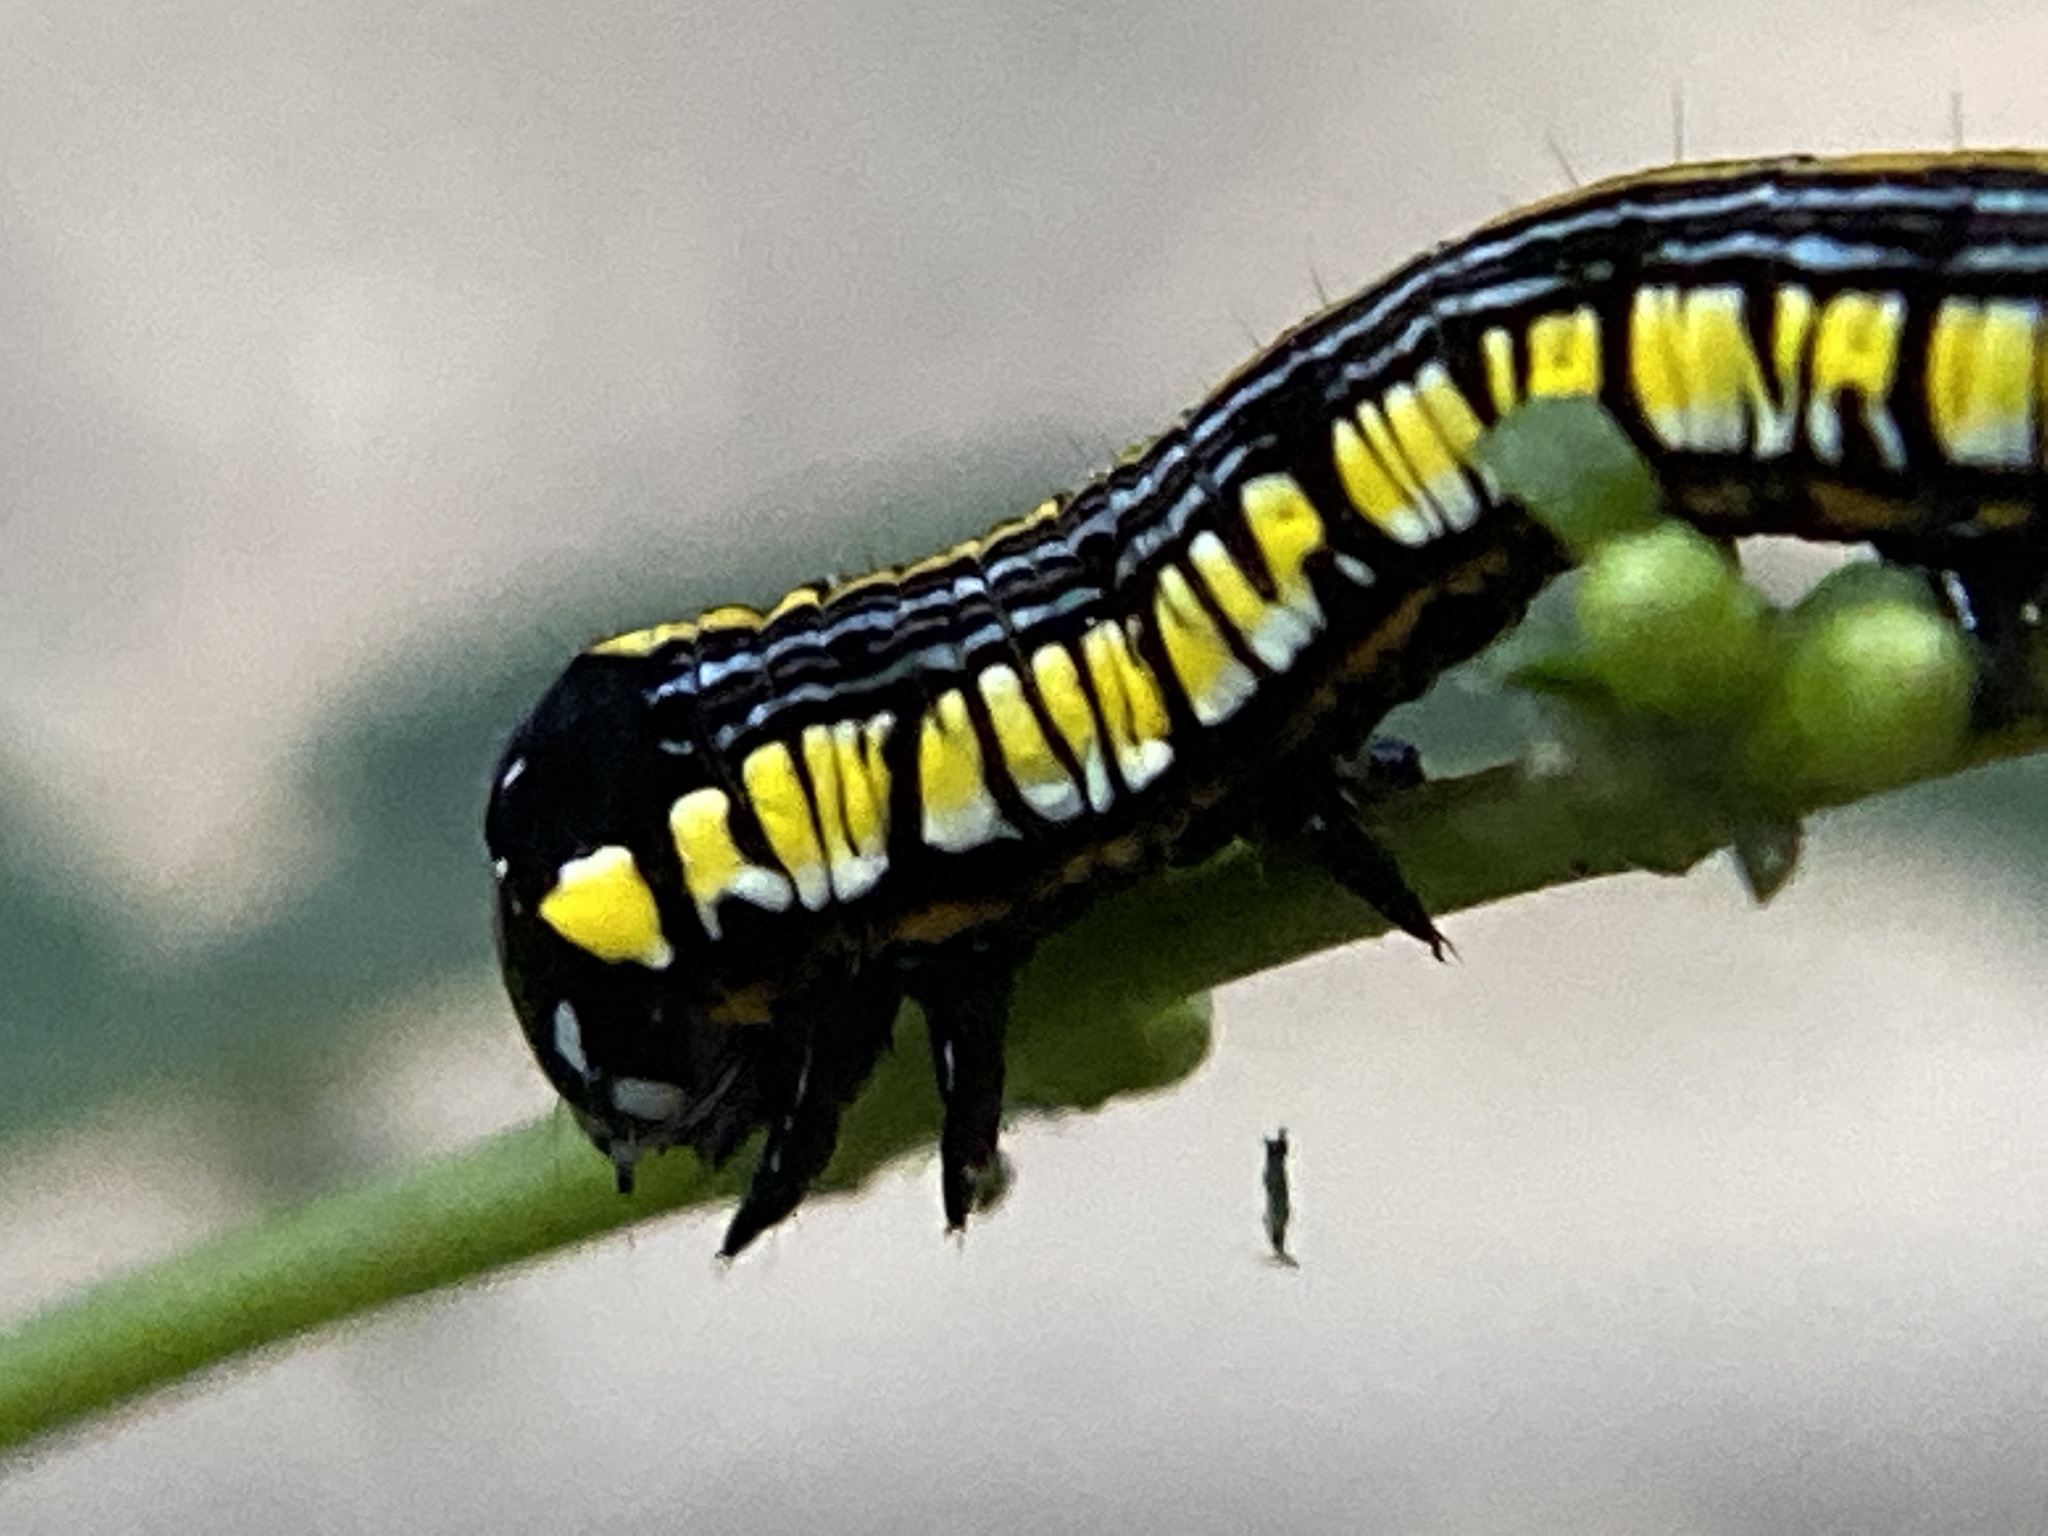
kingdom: Animalia
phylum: Arthropoda
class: Insecta
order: Lepidoptera
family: Noctuidae
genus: Cucullia
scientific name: Cucullia convexipennis
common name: Brown-hooded owlet
